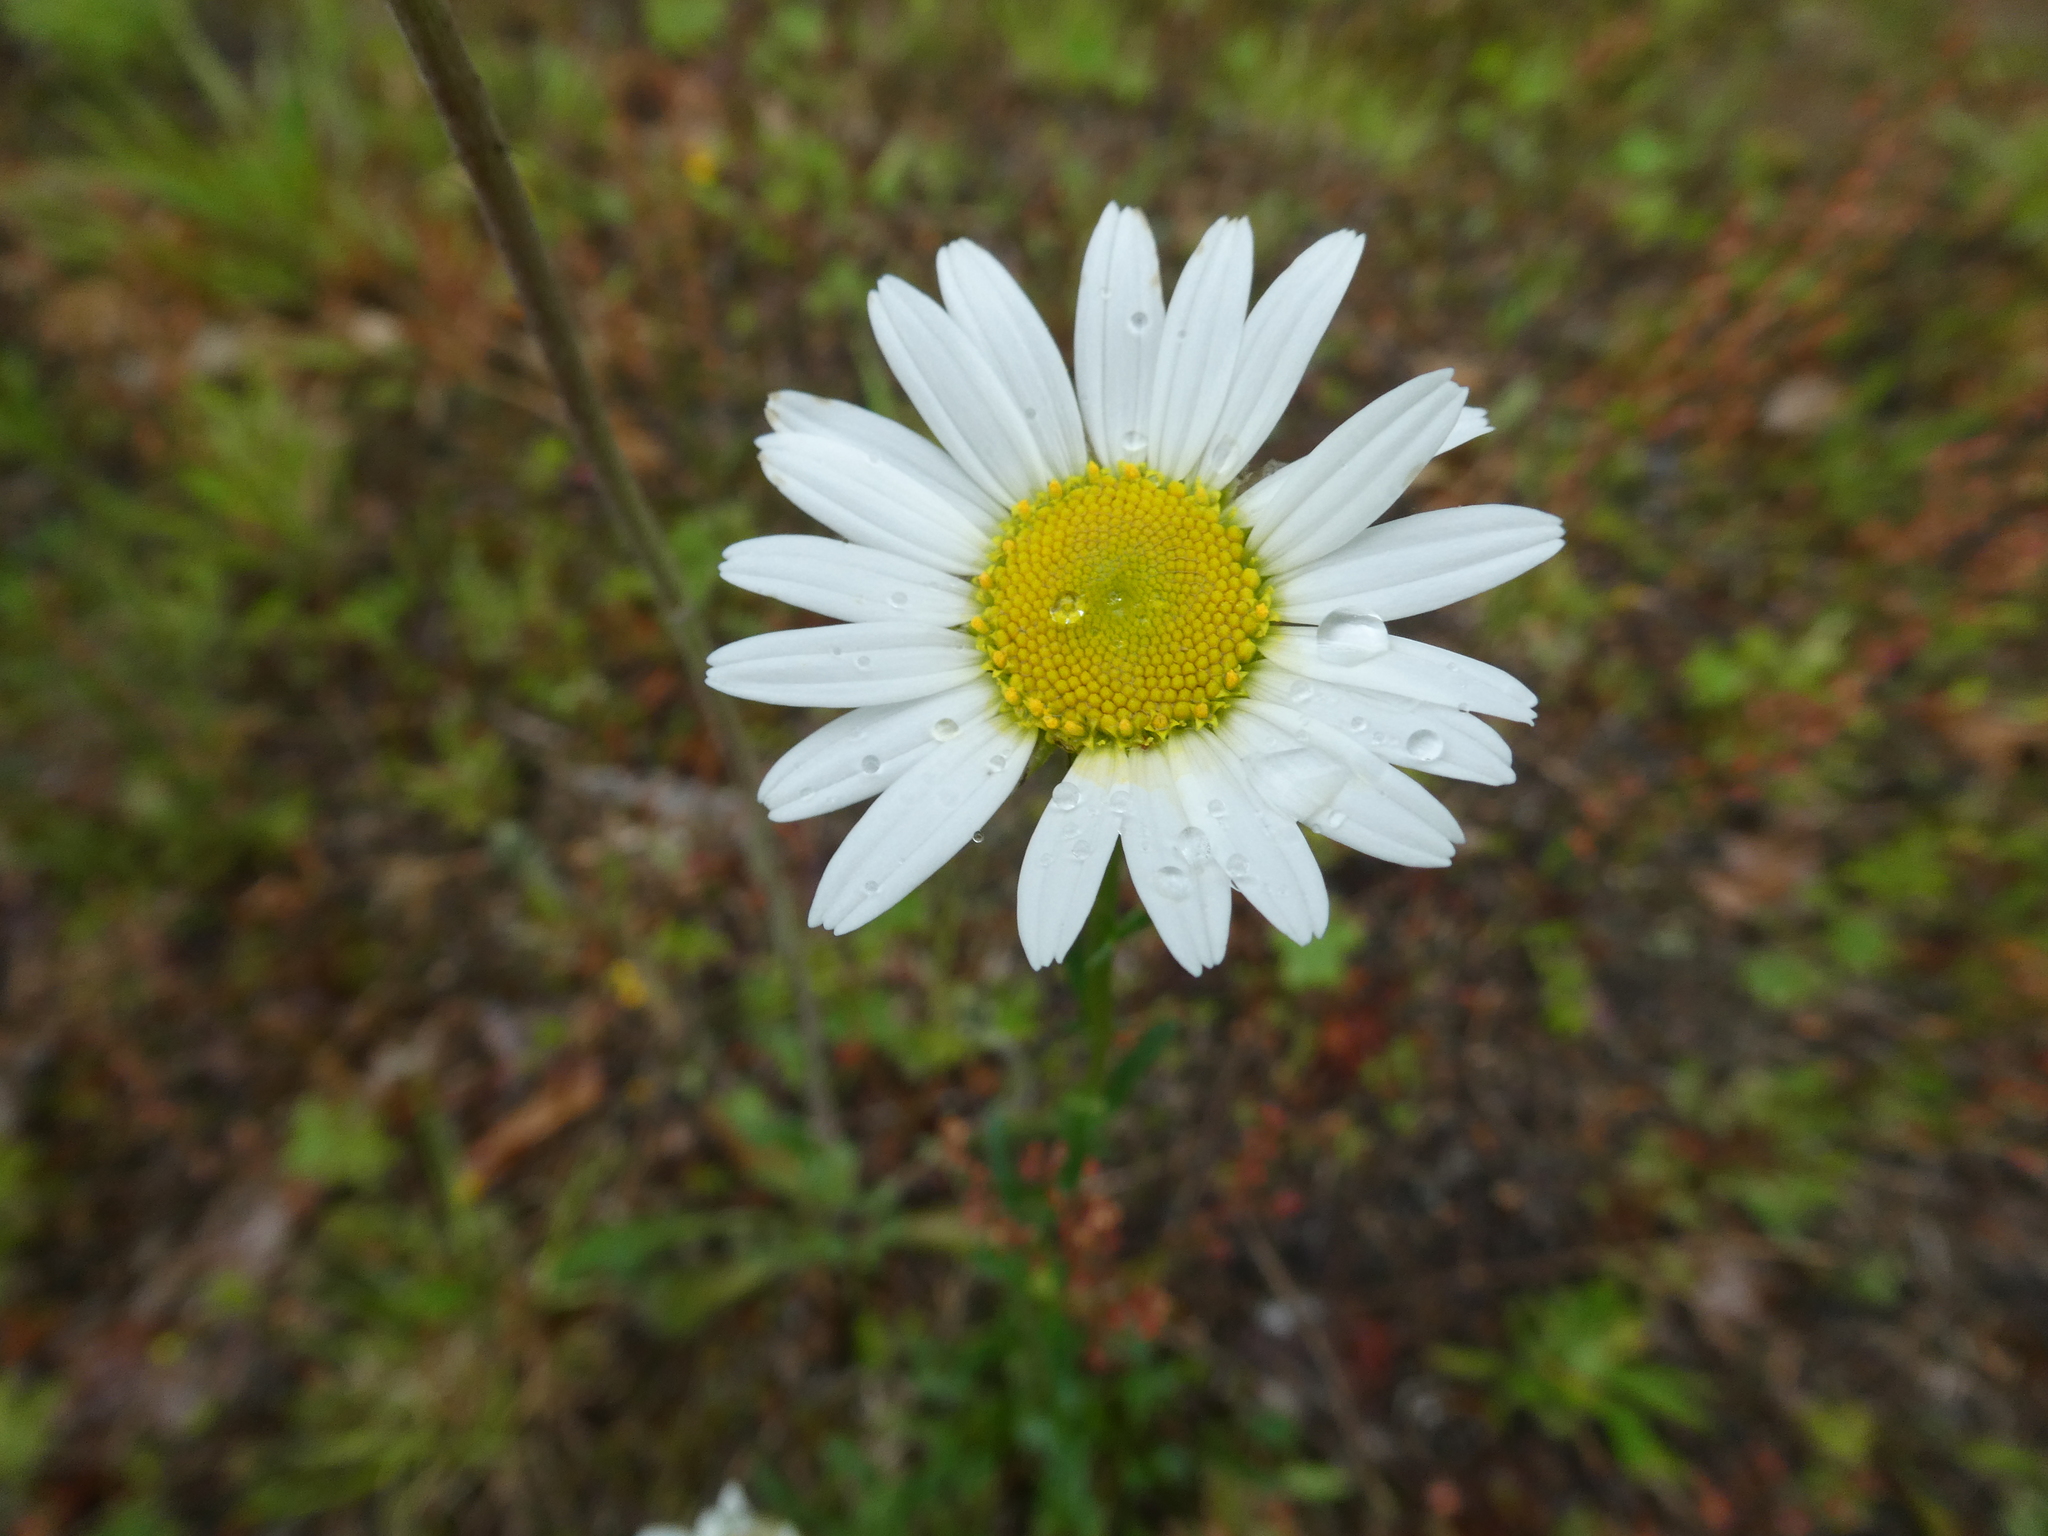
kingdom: Plantae
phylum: Tracheophyta
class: Magnoliopsida
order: Asterales
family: Asteraceae
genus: Leucanthemum
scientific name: Leucanthemum vulgare
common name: Oxeye daisy
